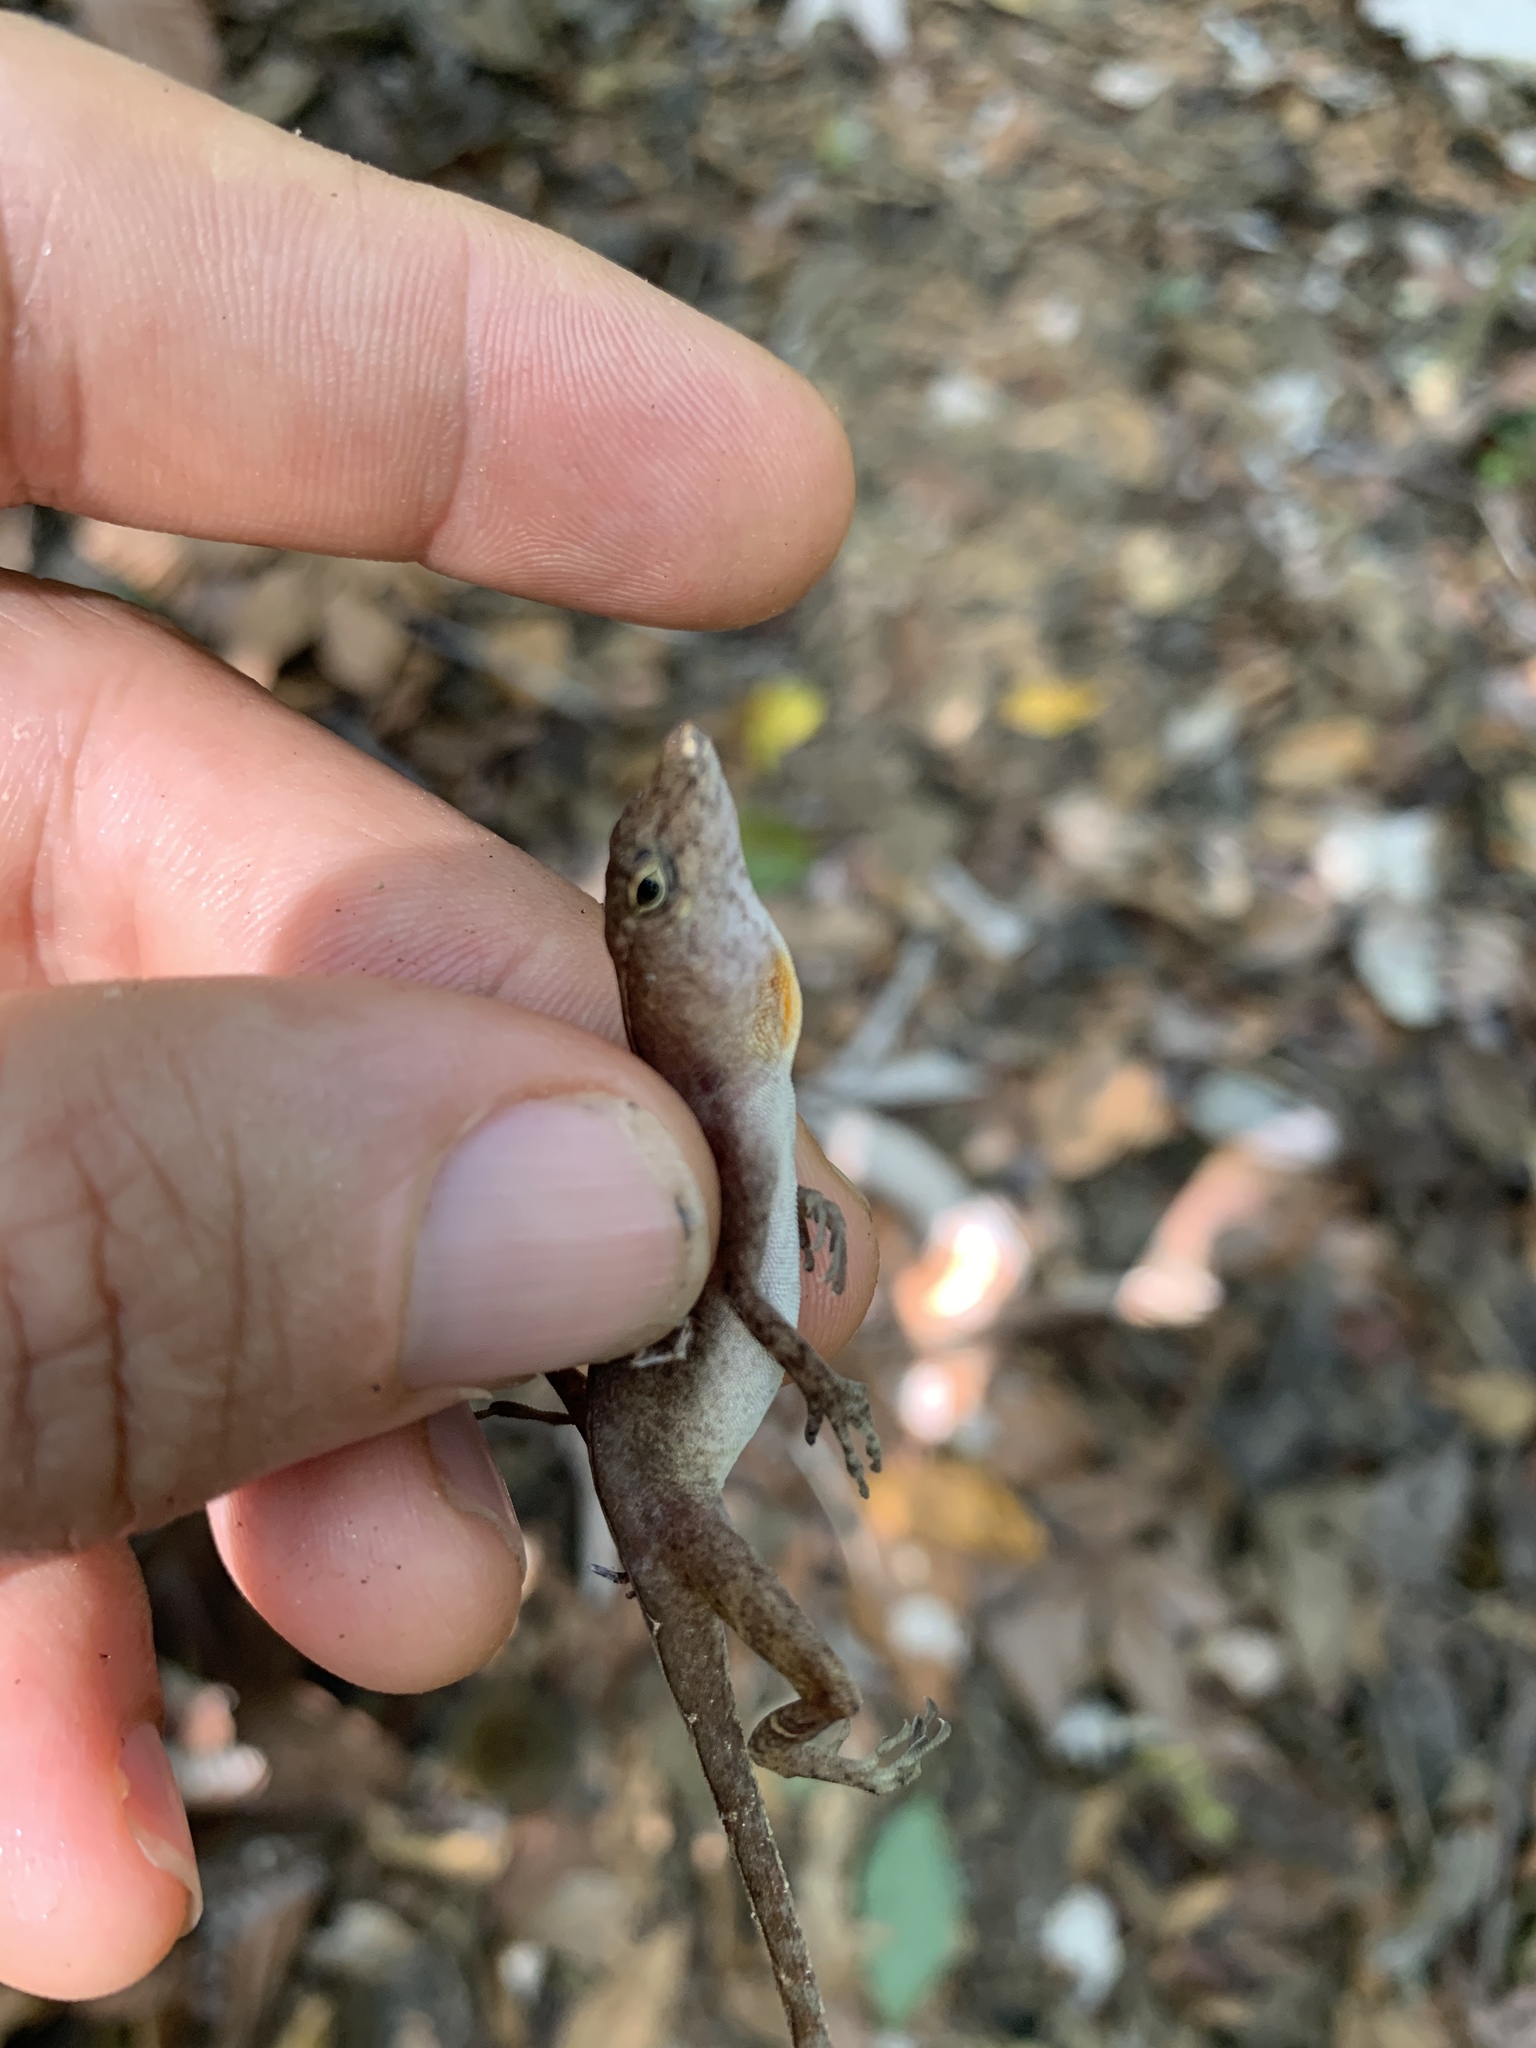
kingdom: Animalia
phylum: Chordata
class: Squamata
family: Dactyloidae
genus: Anolis
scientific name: Anolis osa
